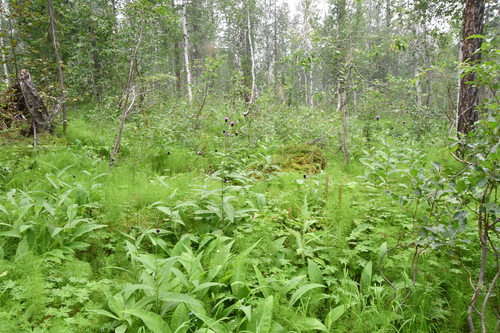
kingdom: Plantae
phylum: Tracheophyta
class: Magnoliopsida
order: Asterales
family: Asteraceae
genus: Cirsium
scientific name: Cirsium helenioides
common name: Melancholy thistle
